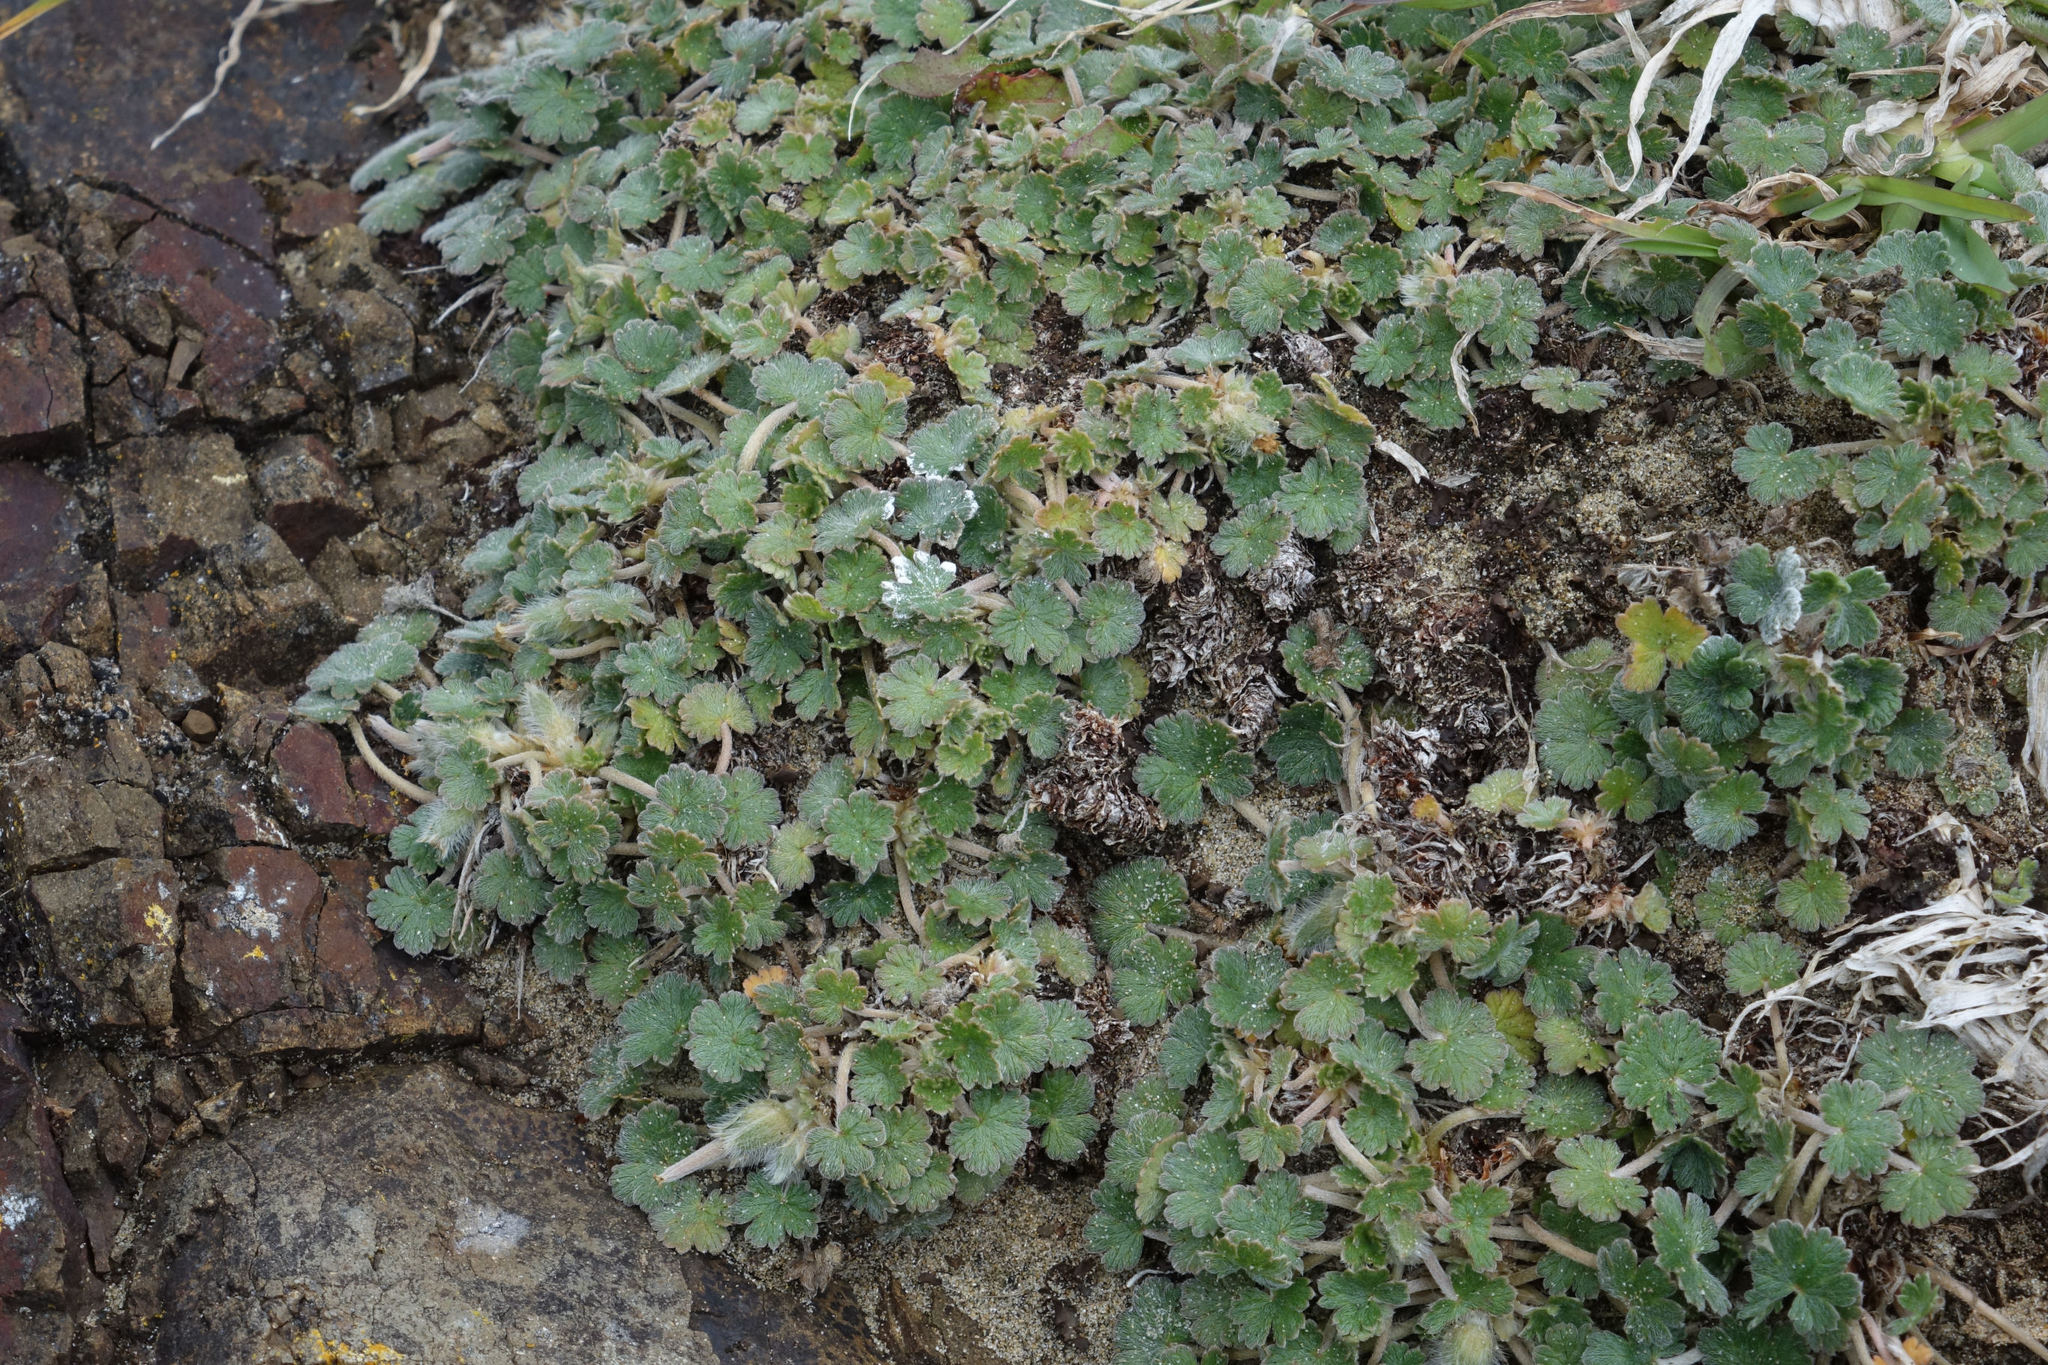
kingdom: Plantae
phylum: Tracheophyta
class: Magnoliopsida
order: Geraniales
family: Geraniaceae
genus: Geranium
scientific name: Geranium brevicaule
